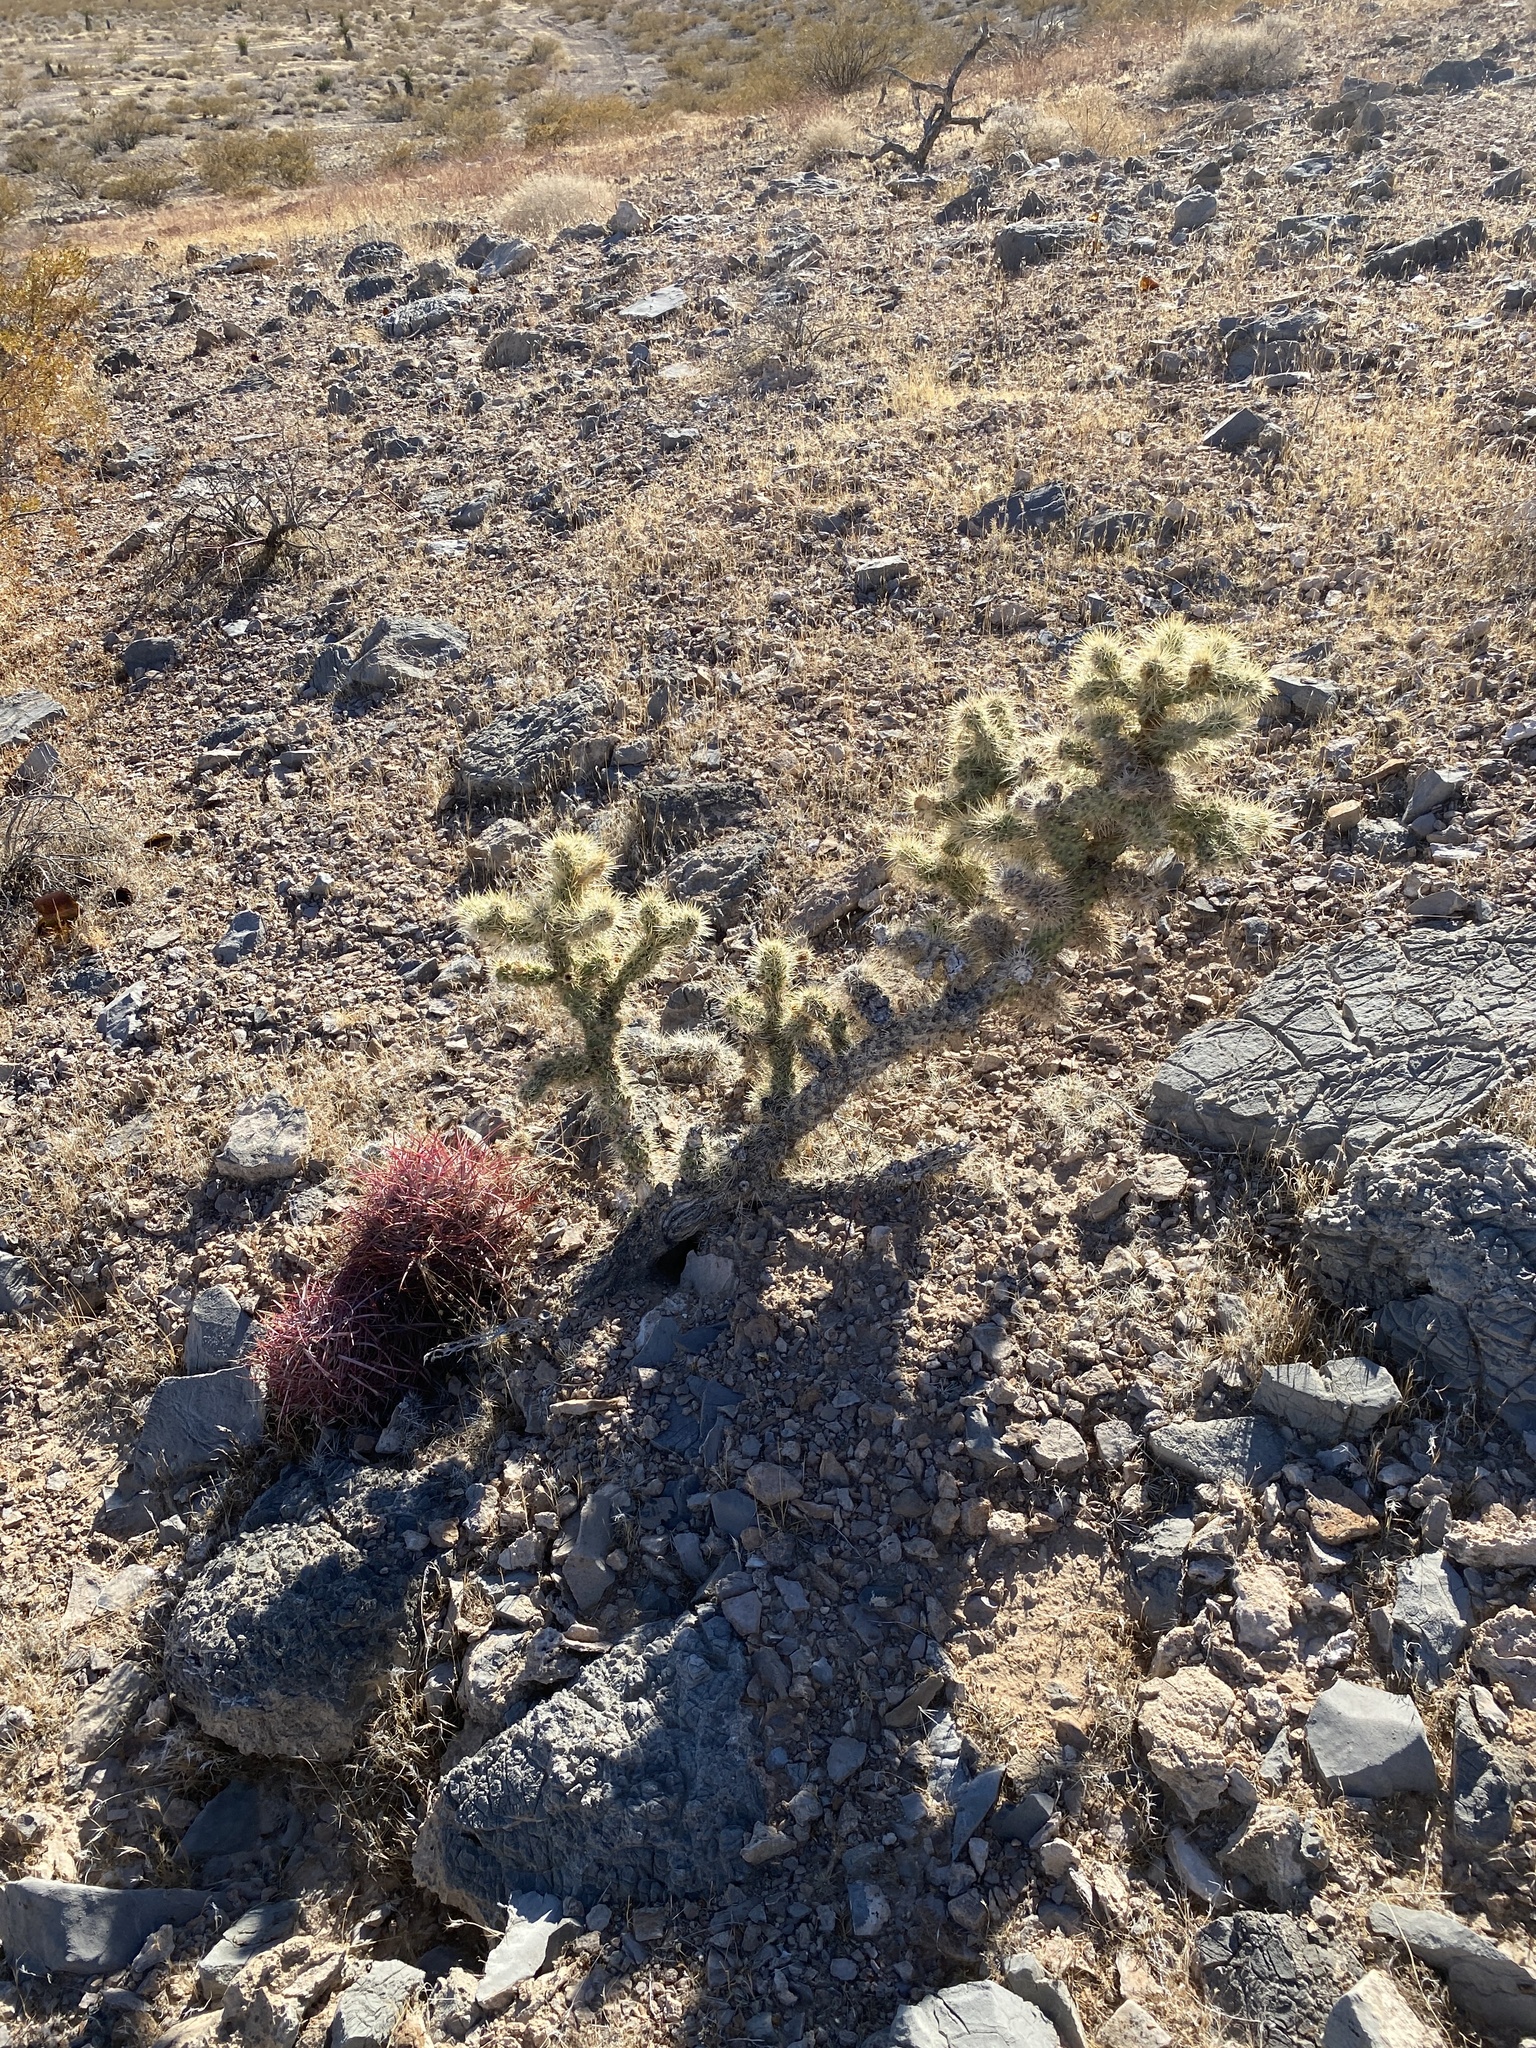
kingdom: Plantae
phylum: Tracheophyta
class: Magnoliopsida
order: Caryophyllales
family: Cactaceae
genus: Cylindropuntia
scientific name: Cylindropuntia acanthocarpa
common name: Buckhorn cholla
